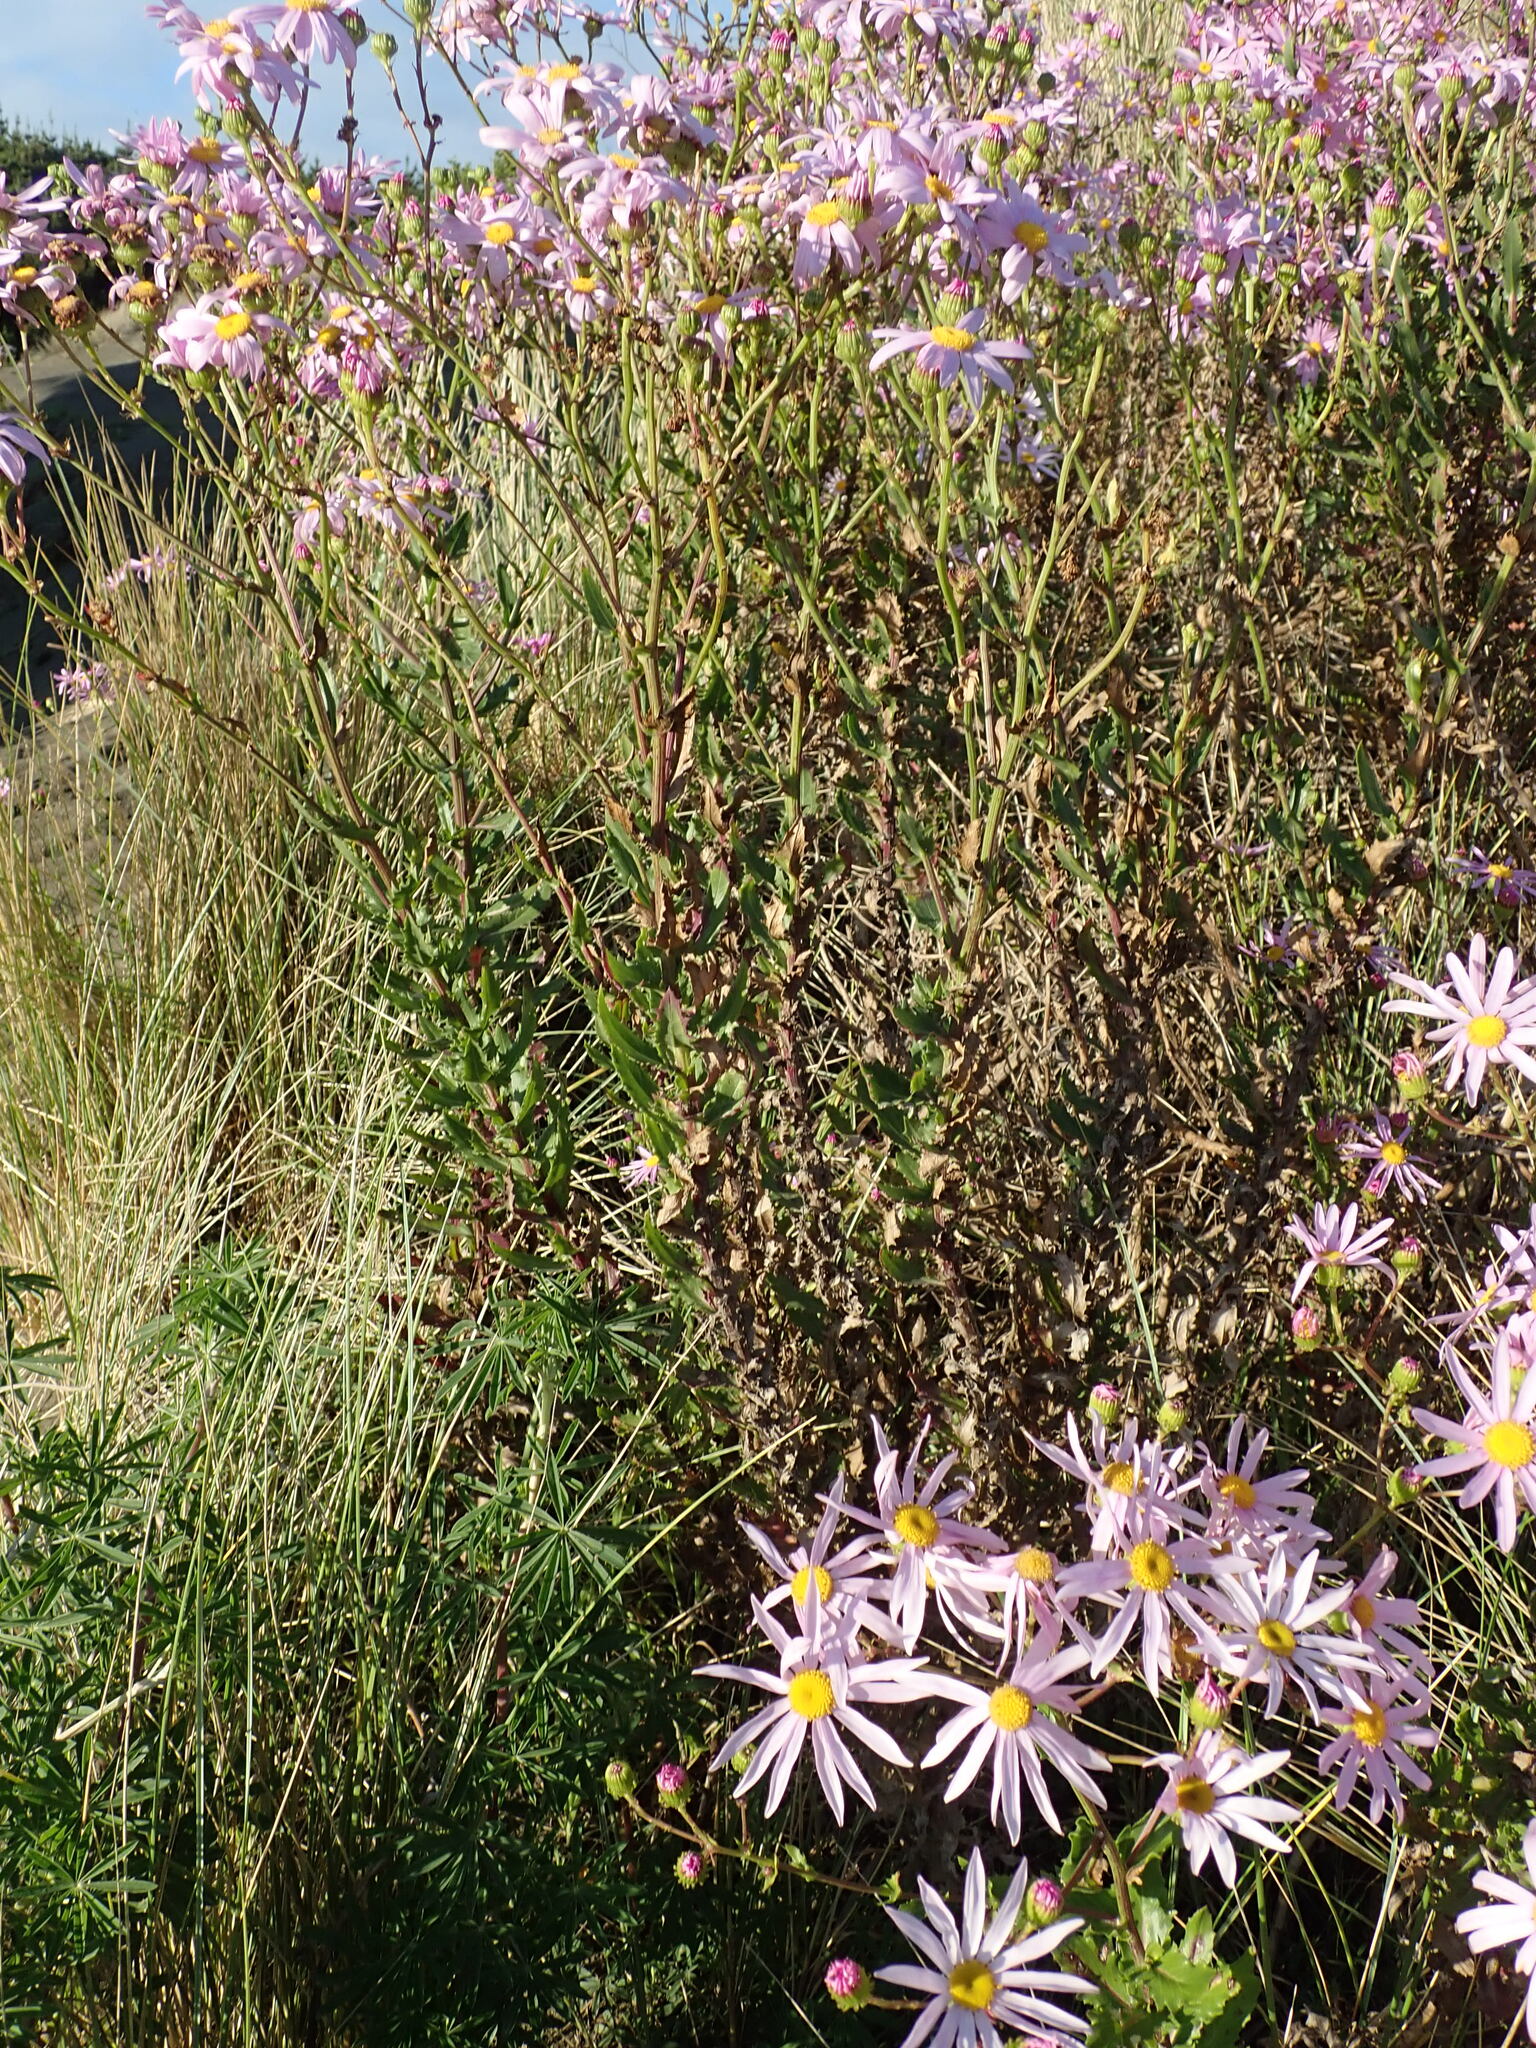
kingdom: Plantae
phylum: Tracheophyta
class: Magnoliopsida
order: Asterales
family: Asteraceae
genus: Senecio
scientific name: Senecio glastifolius
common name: Woad-leaved ragwort
